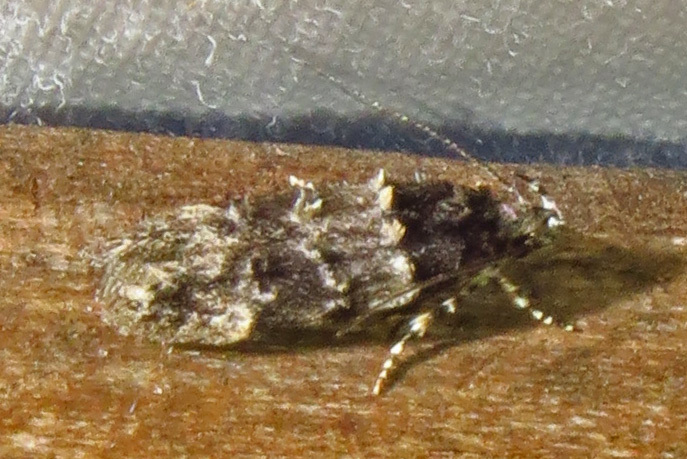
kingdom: Animalia
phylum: Arthropoda
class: Insecta
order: Lepidoptera
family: Gelechiidae
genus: Pubitelphusa
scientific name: Pubitelphusa latifasciella
